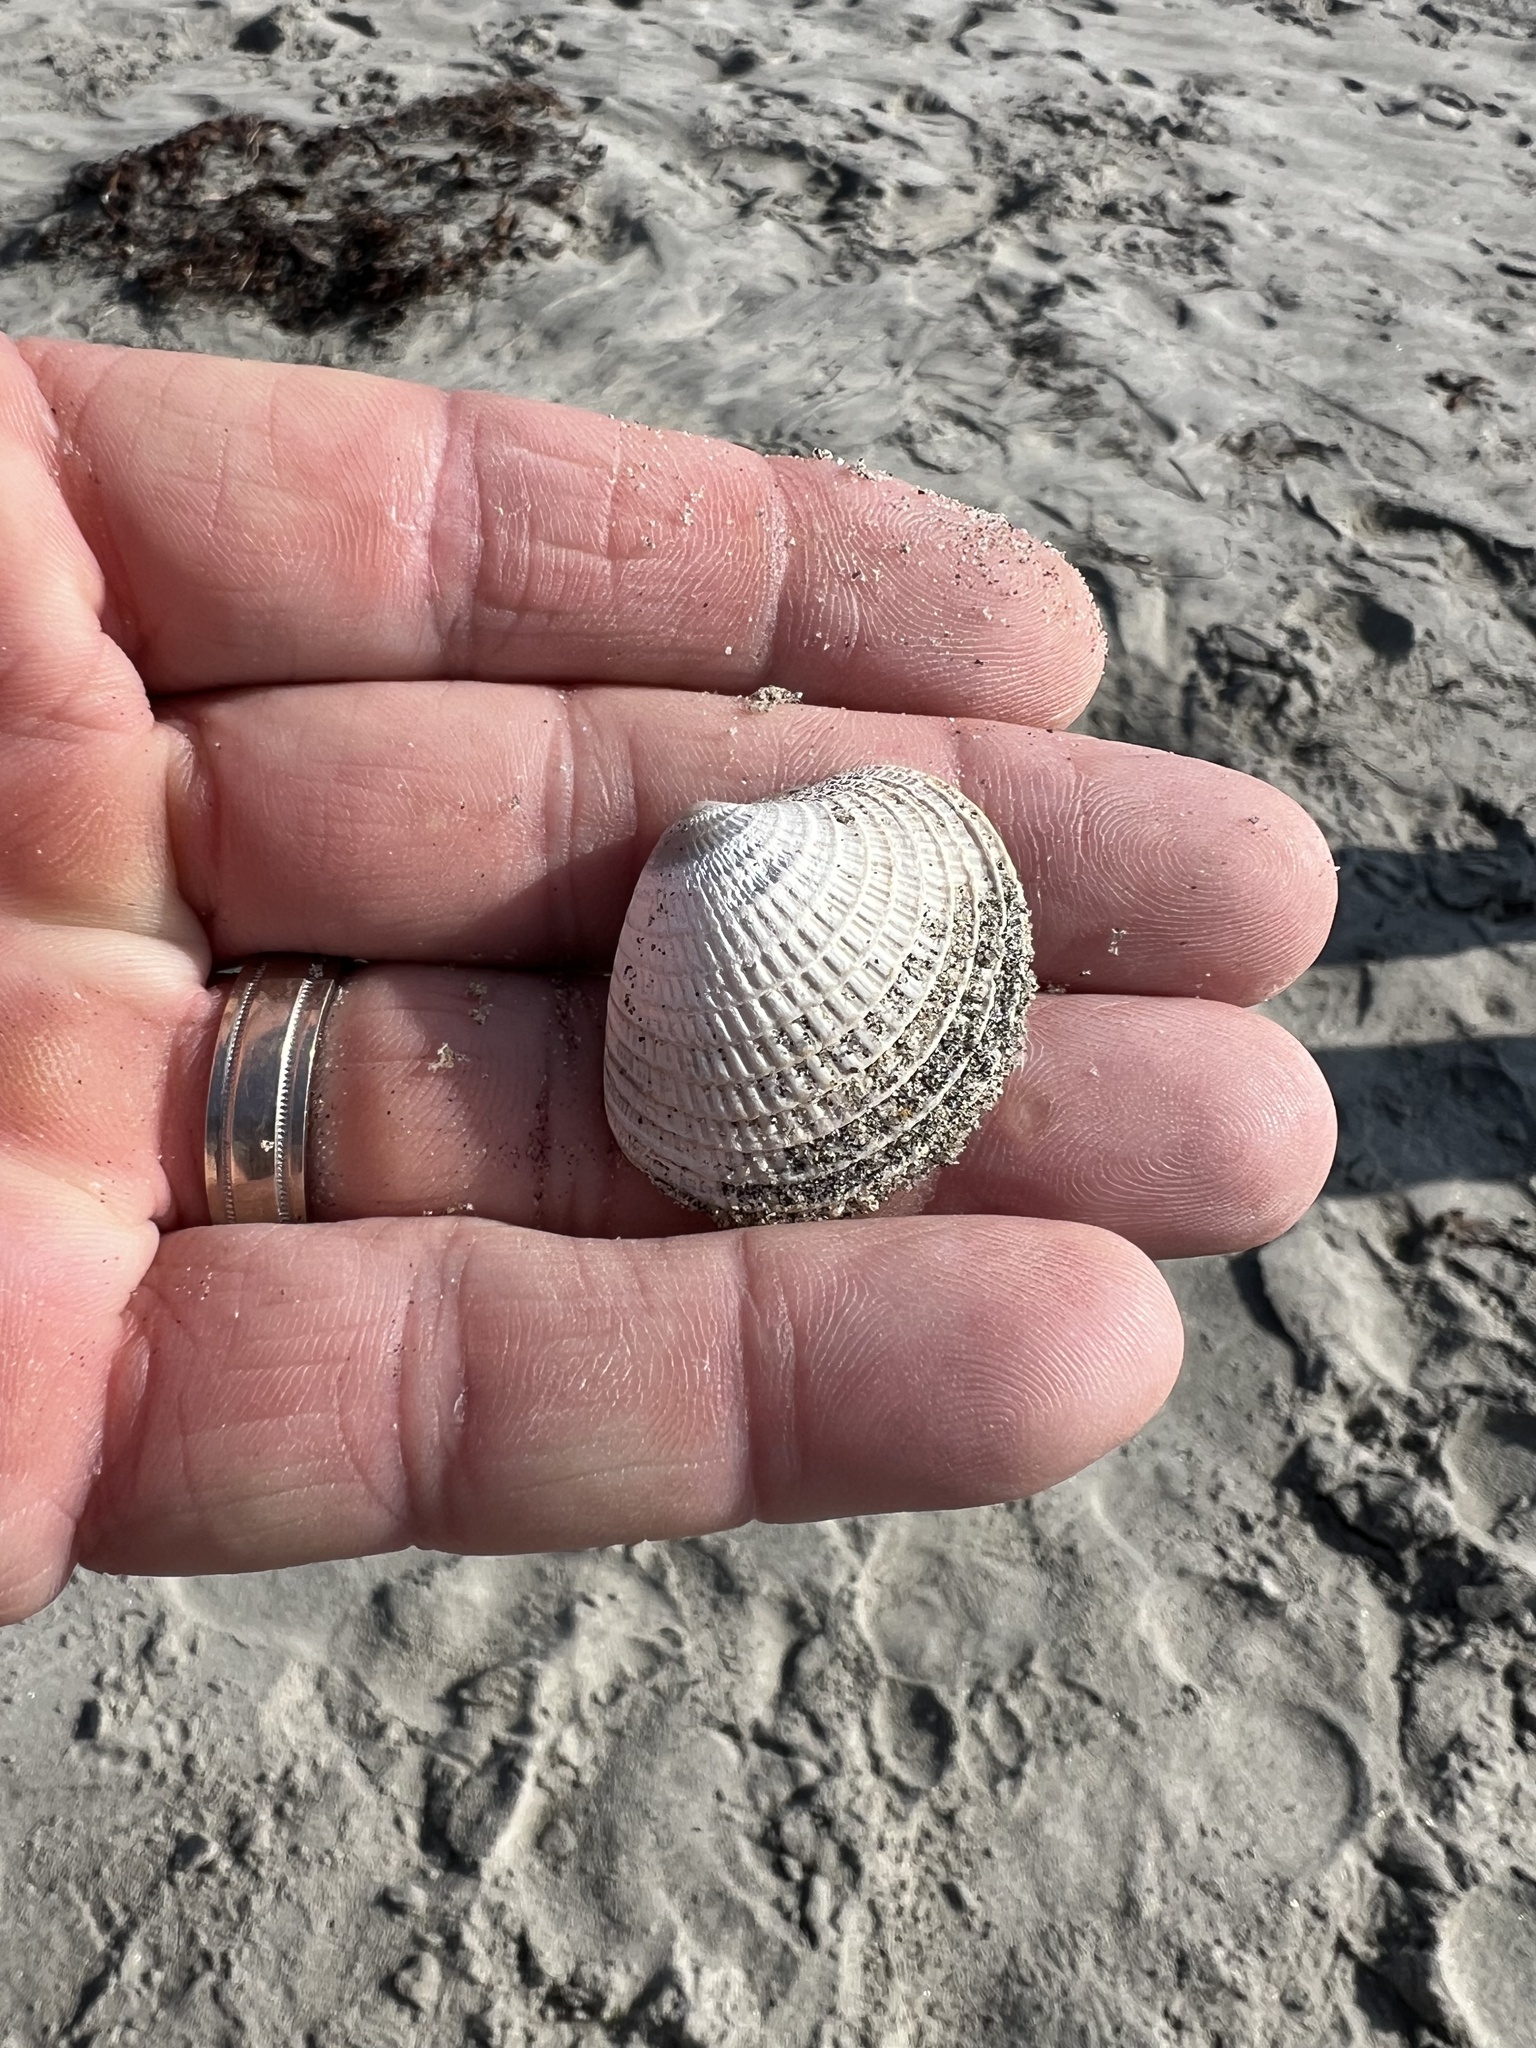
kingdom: Animalia
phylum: Mollusca
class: Bivalvia
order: Venerida
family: Veneridae
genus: Chione
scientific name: Chione undatella
